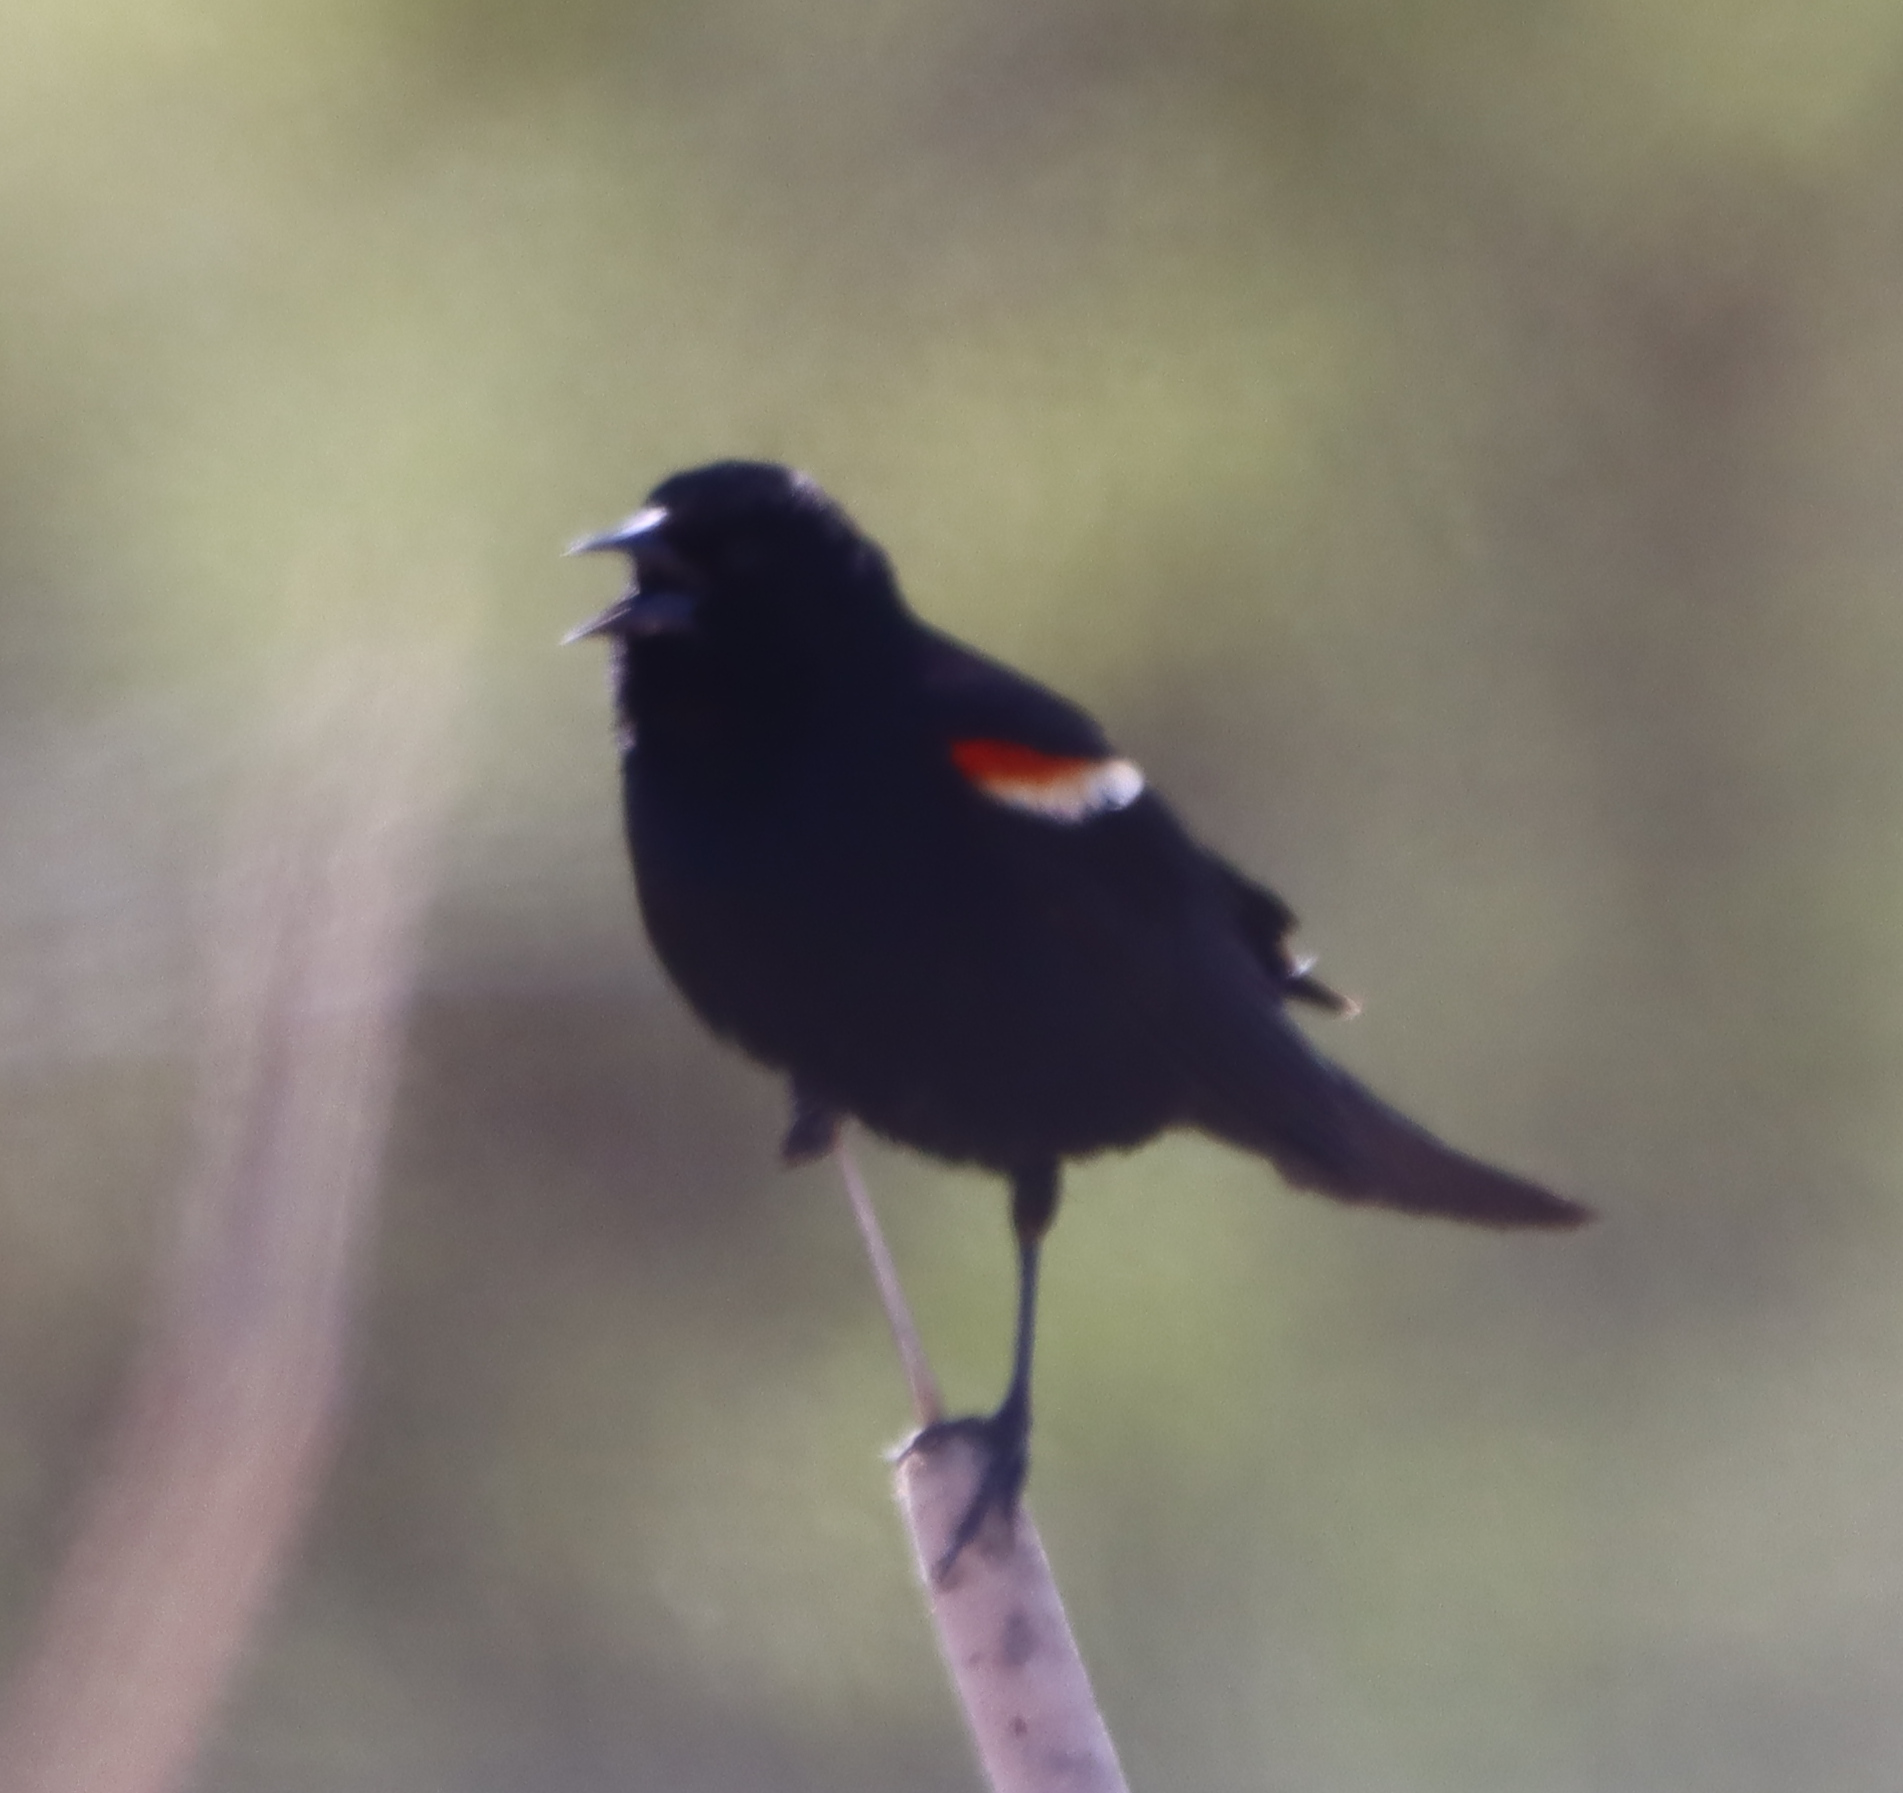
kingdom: Animalia
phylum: Chordata
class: Aves
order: Passeriformes
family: Icteridae
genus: Agelaius
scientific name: Agelaius phoeniceus
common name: Red-winged blackbird
